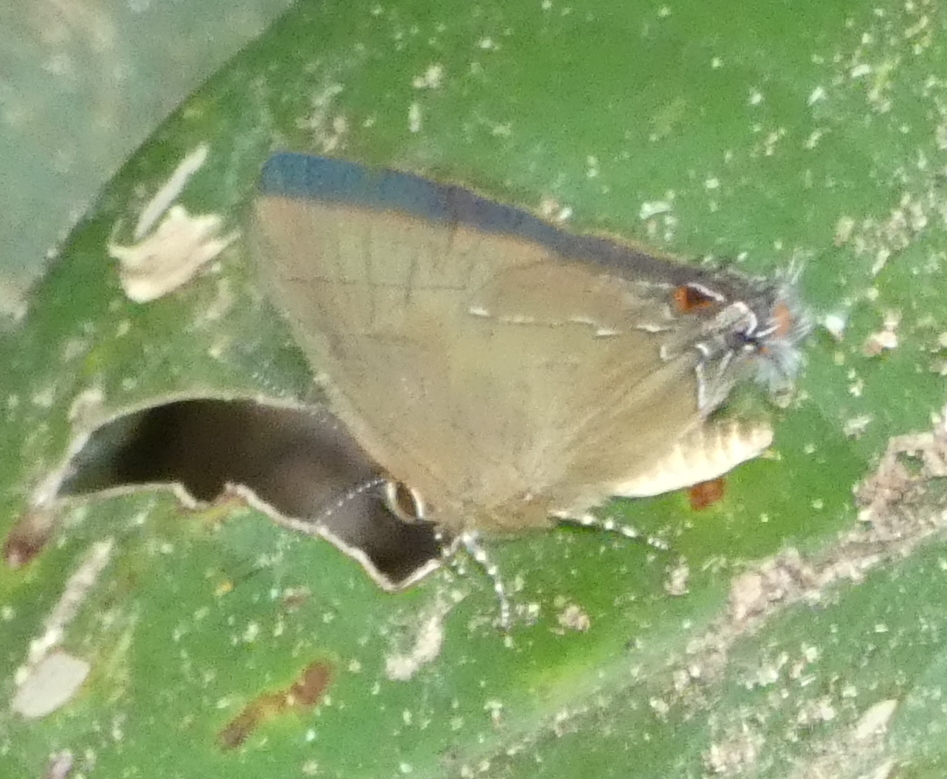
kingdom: Animalia
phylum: Arthropoda
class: Insecta
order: Lepidoptera
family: Lycaenidae
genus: Ziegleria
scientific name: Ziegleria hesperitis
